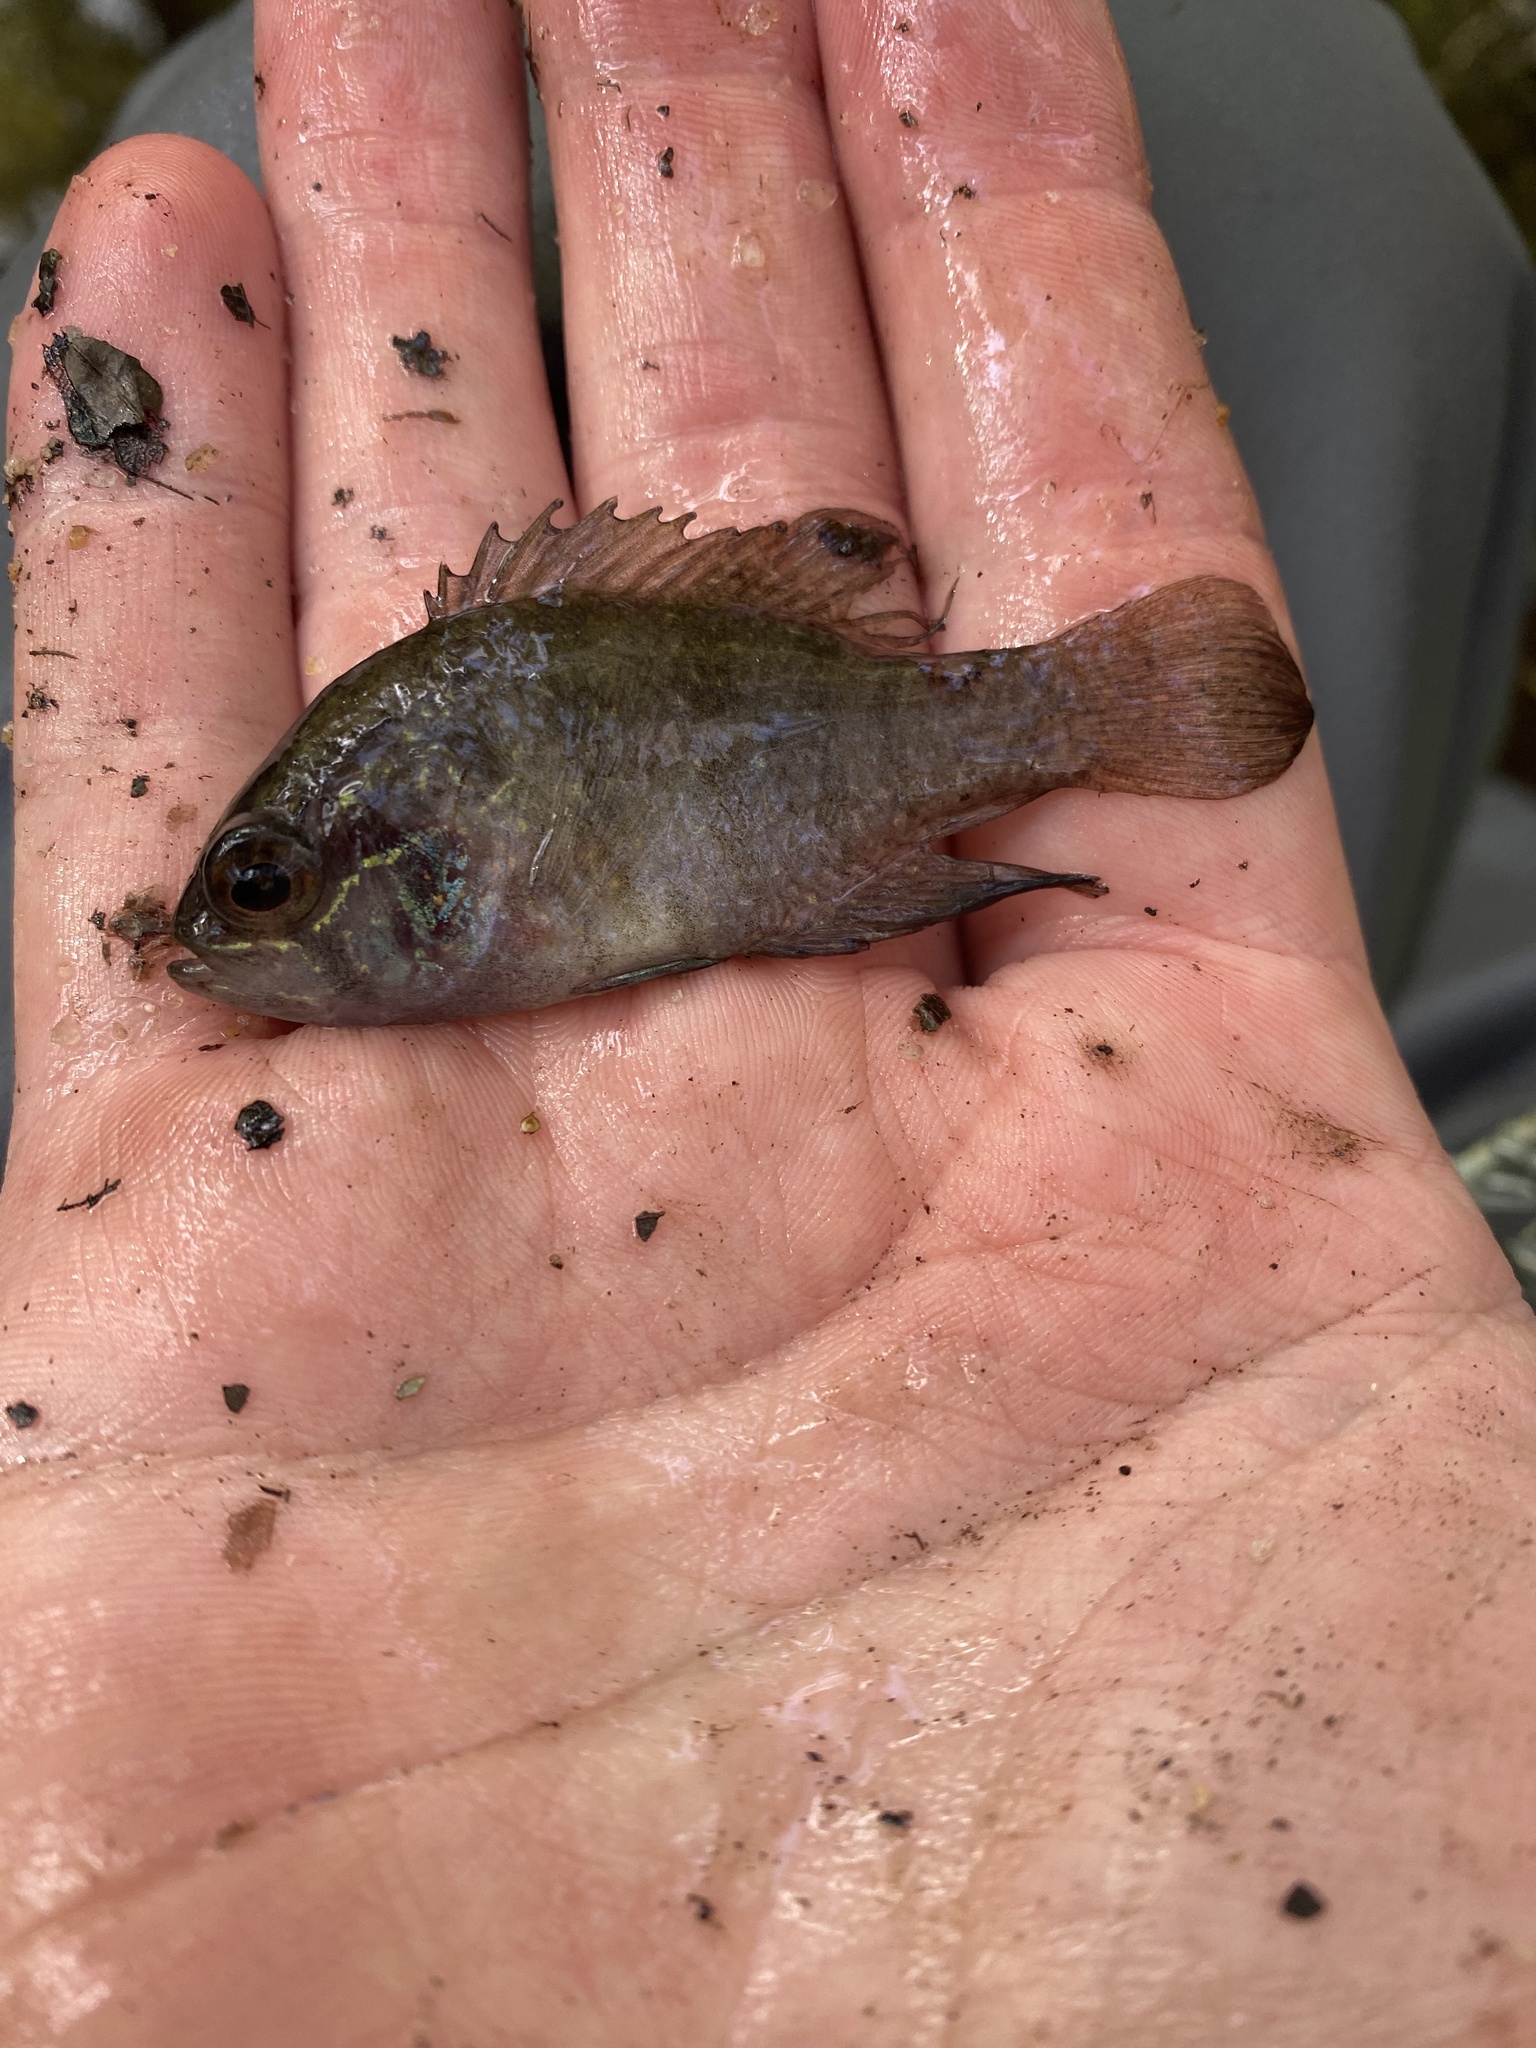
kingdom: Animalia
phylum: Chordata
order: Perciformes
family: Centrarchidae
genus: Enneacanthus
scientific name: Enneacanthus obesus
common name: Banded sunfish
